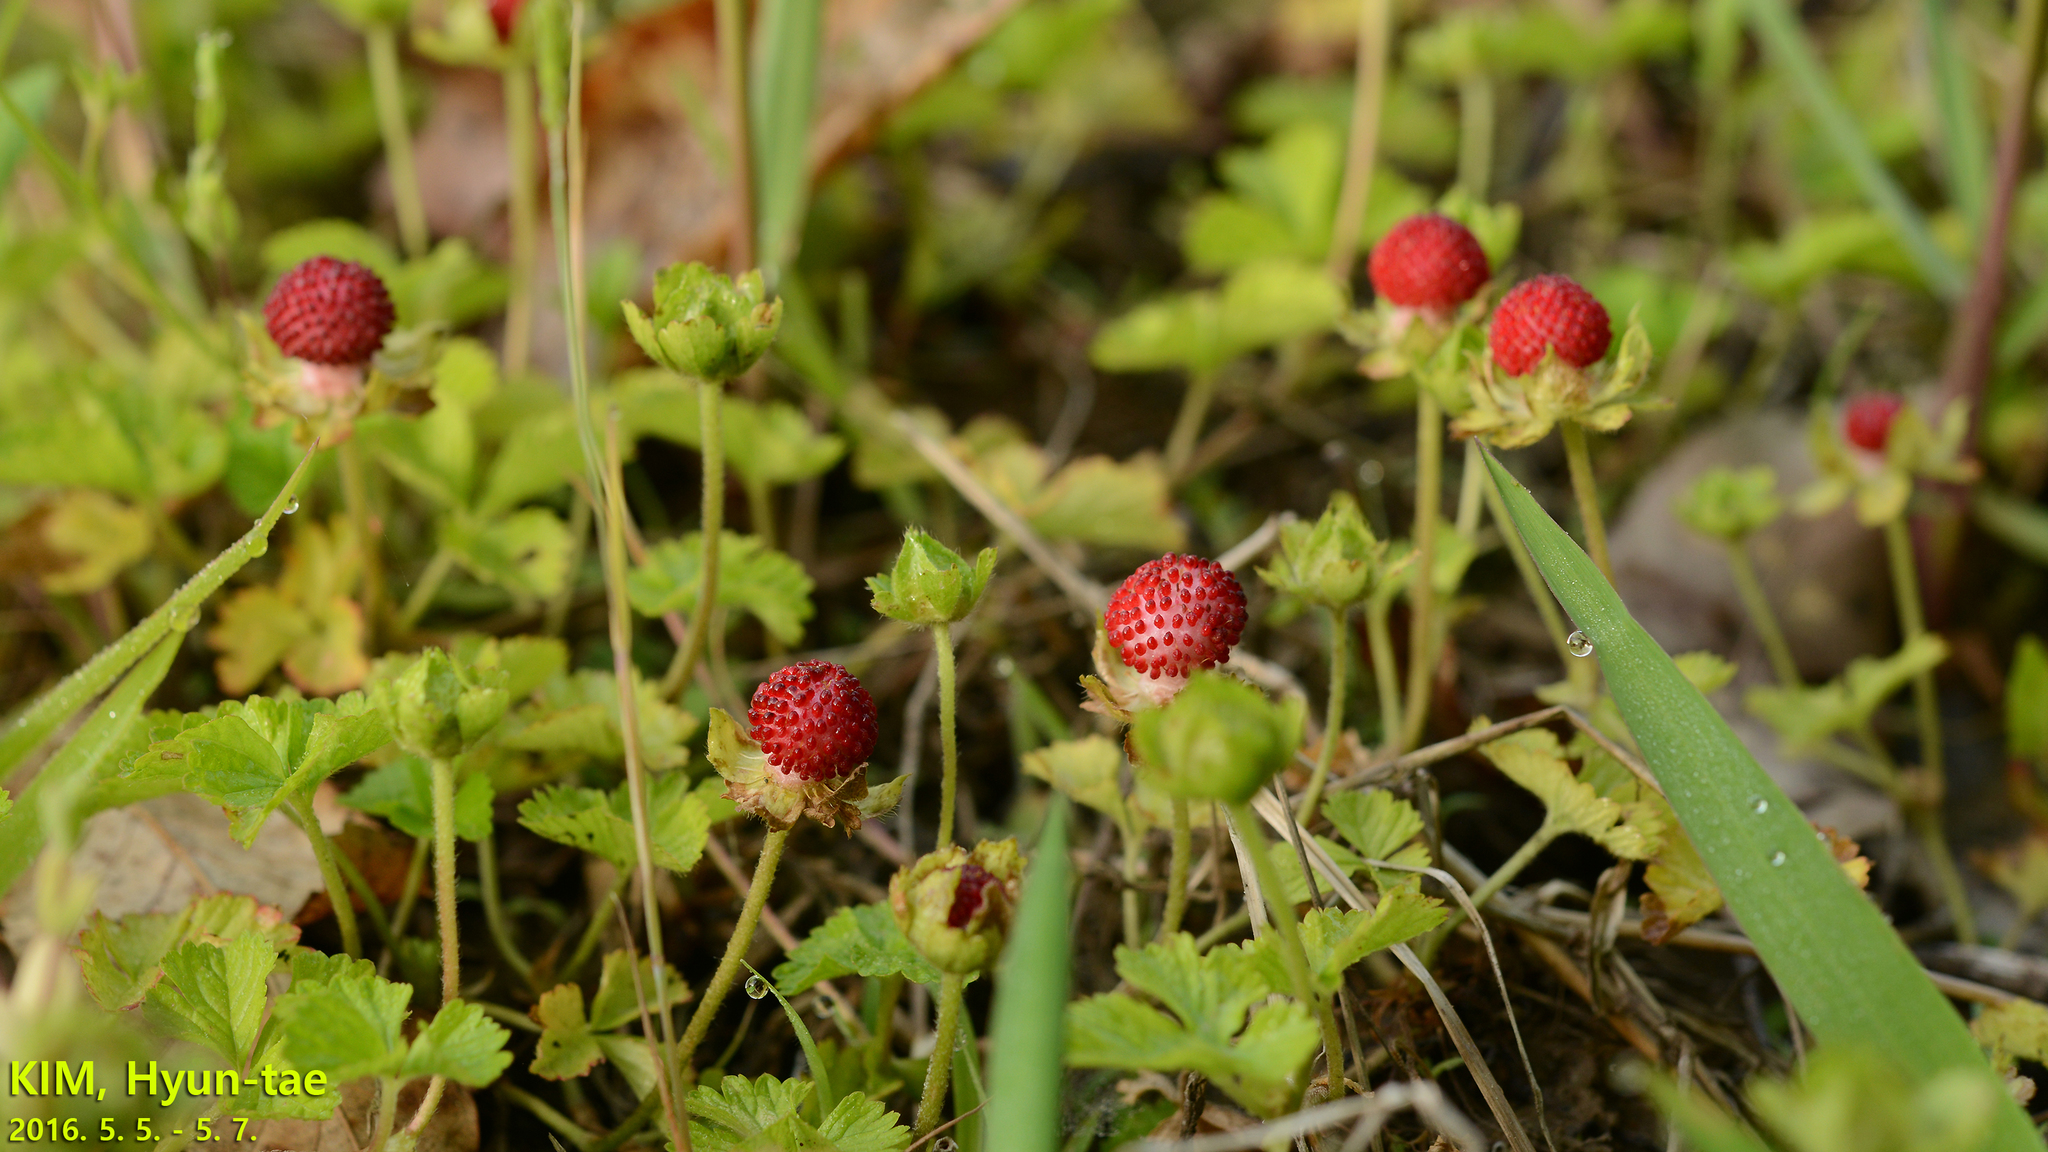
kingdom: Plantae
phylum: Tracheophyta
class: Magnoliopsida
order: Rosales
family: Rosaceae
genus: Potentilla
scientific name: Potentilla wallichiana
